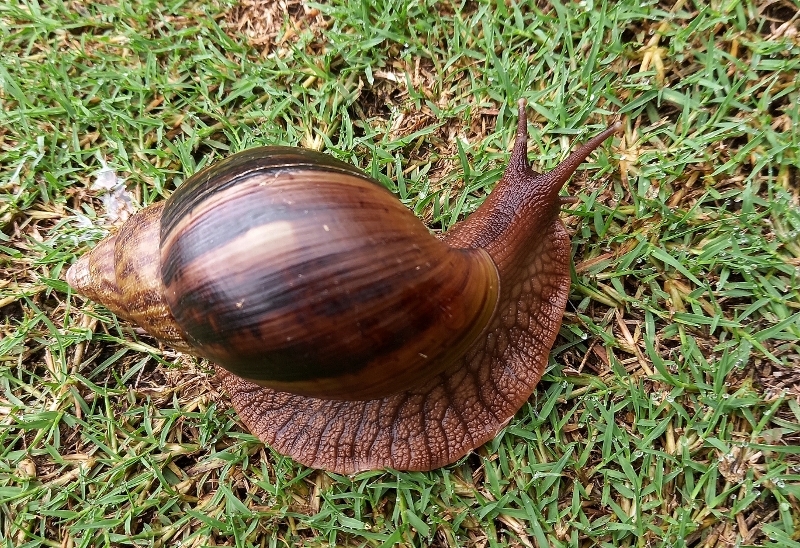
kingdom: Animalia
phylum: Mollusca
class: Gastropoda
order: Stylommatophora
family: Achatinidae
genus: Lissachatina
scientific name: Lissachatina immaculata
